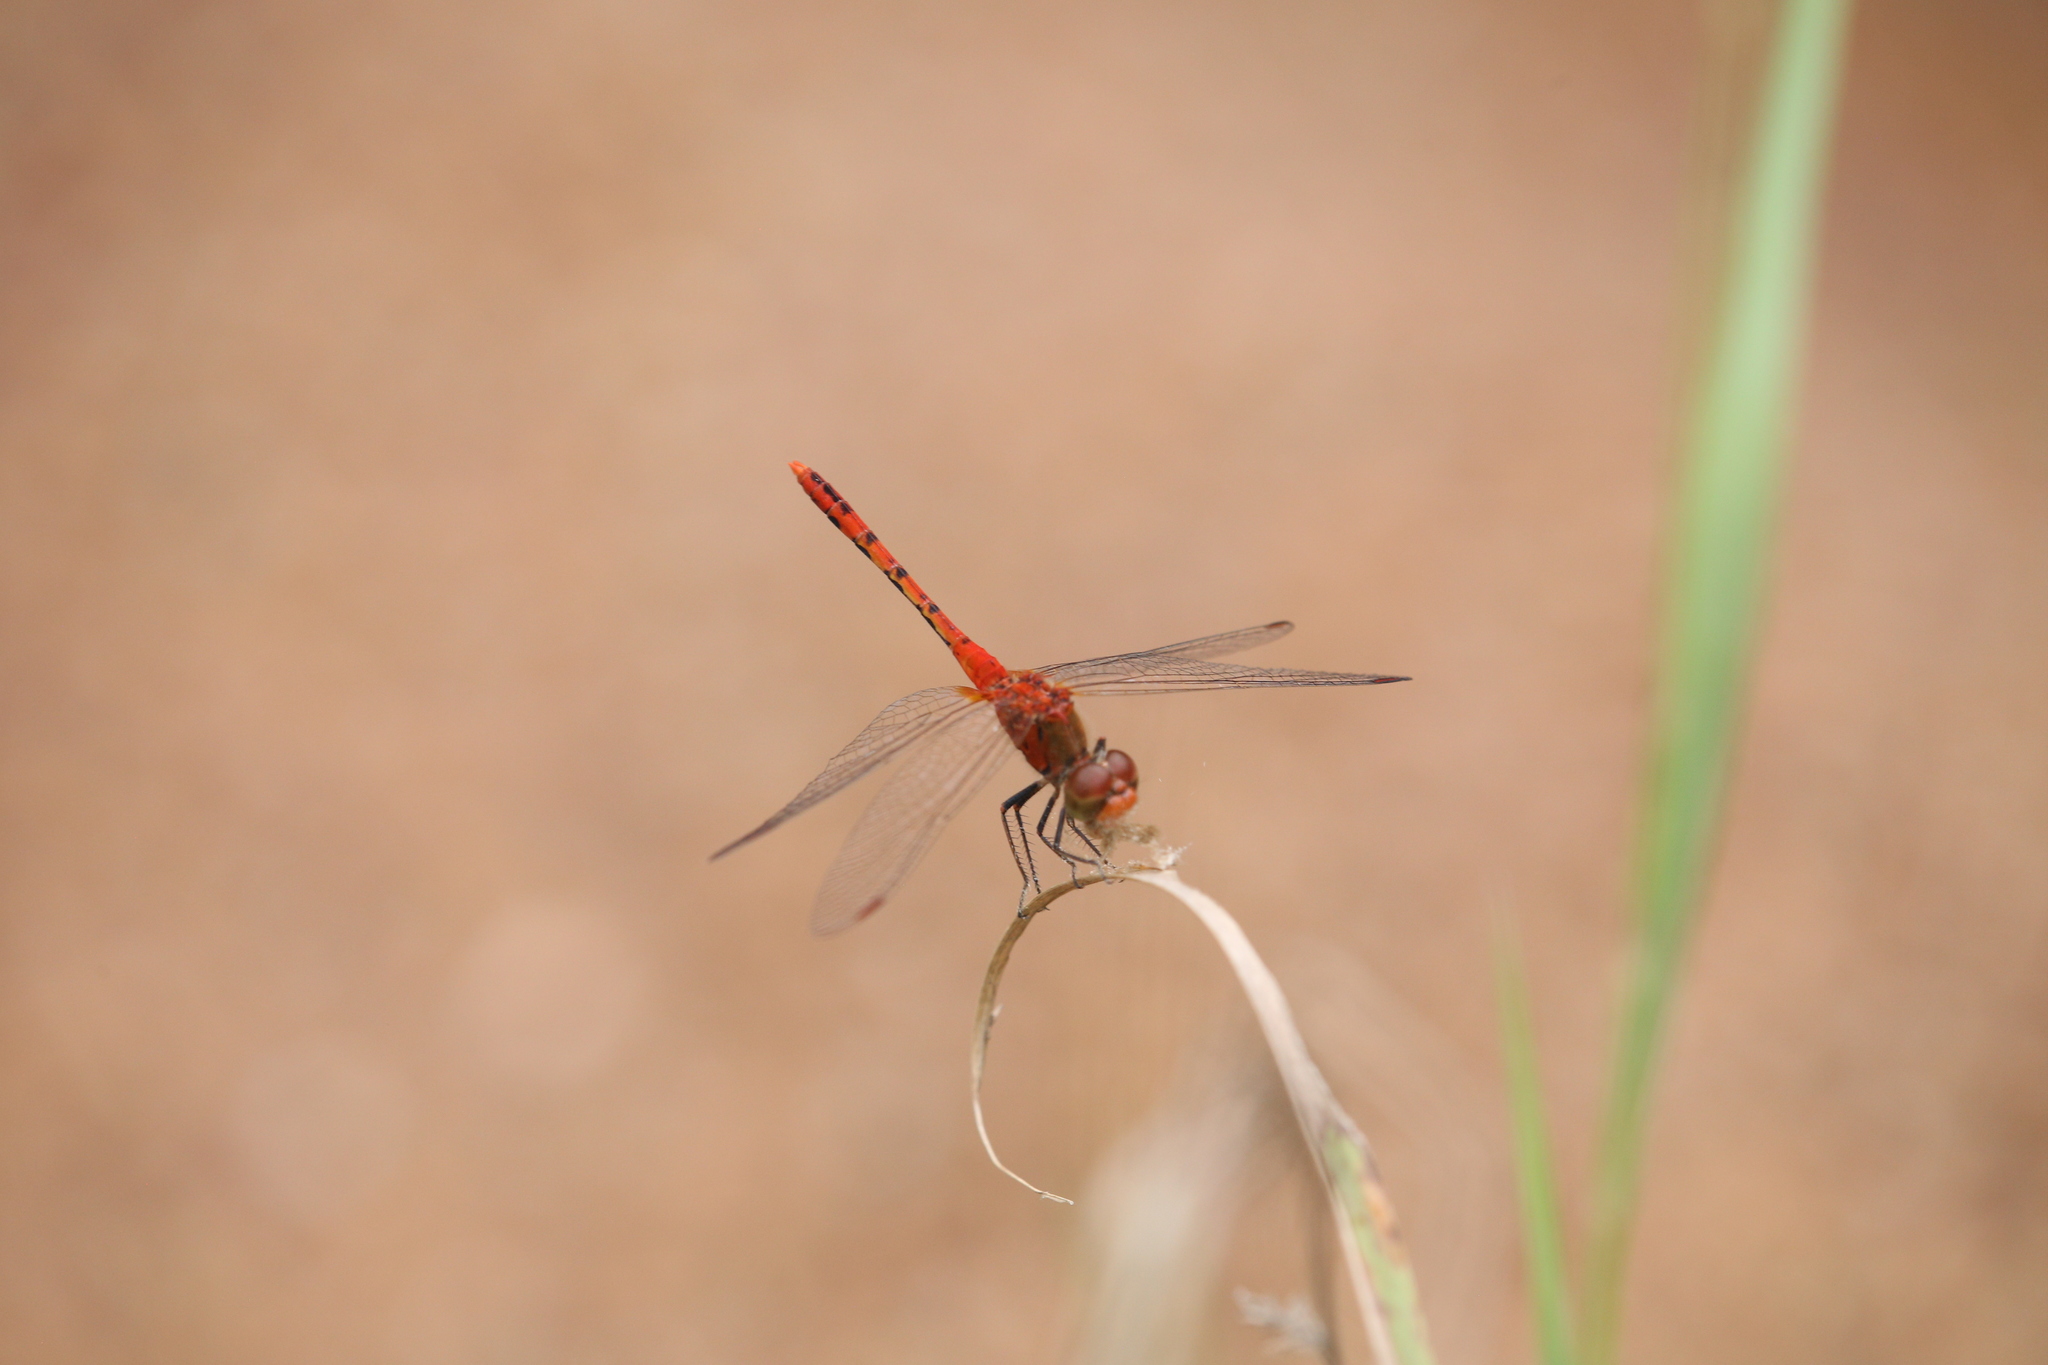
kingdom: Animalia
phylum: Arthropoda
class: Insecta
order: Odonata
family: Libellulidae
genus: Diplacodes
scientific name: Diplacodes bipunctata
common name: Red percher dragonfly
